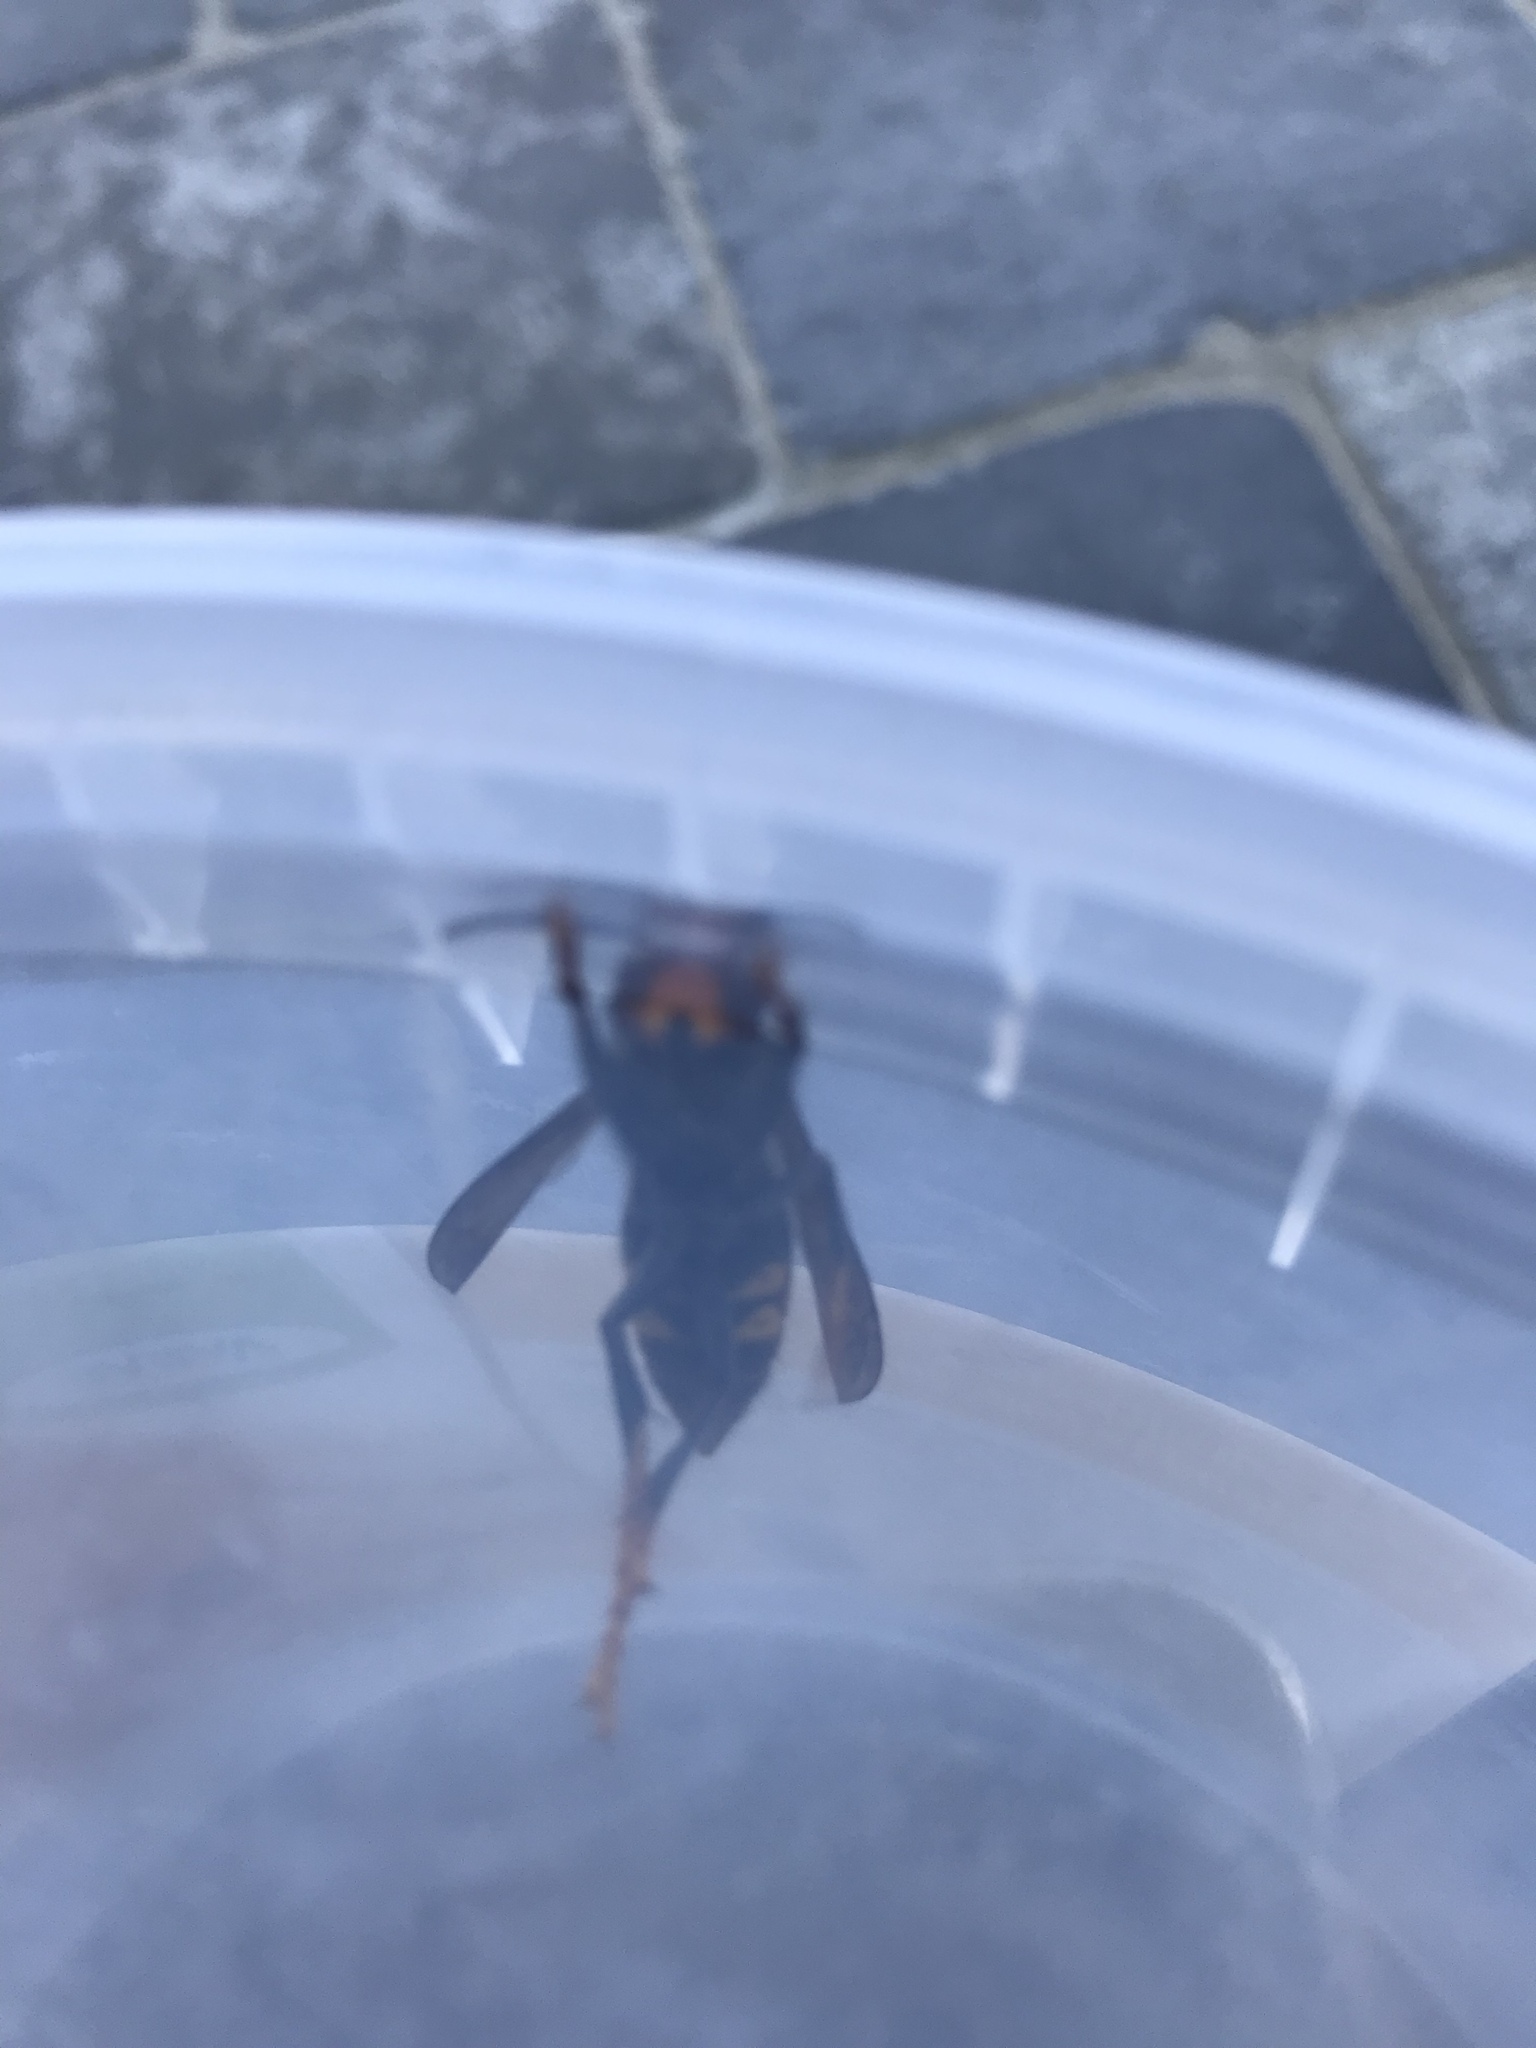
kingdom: Animalia
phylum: Arthropoda
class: Insecta
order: Hymenoptera
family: Vespidae
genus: Vespa
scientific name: Vespa velutina
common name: Asian hornet
